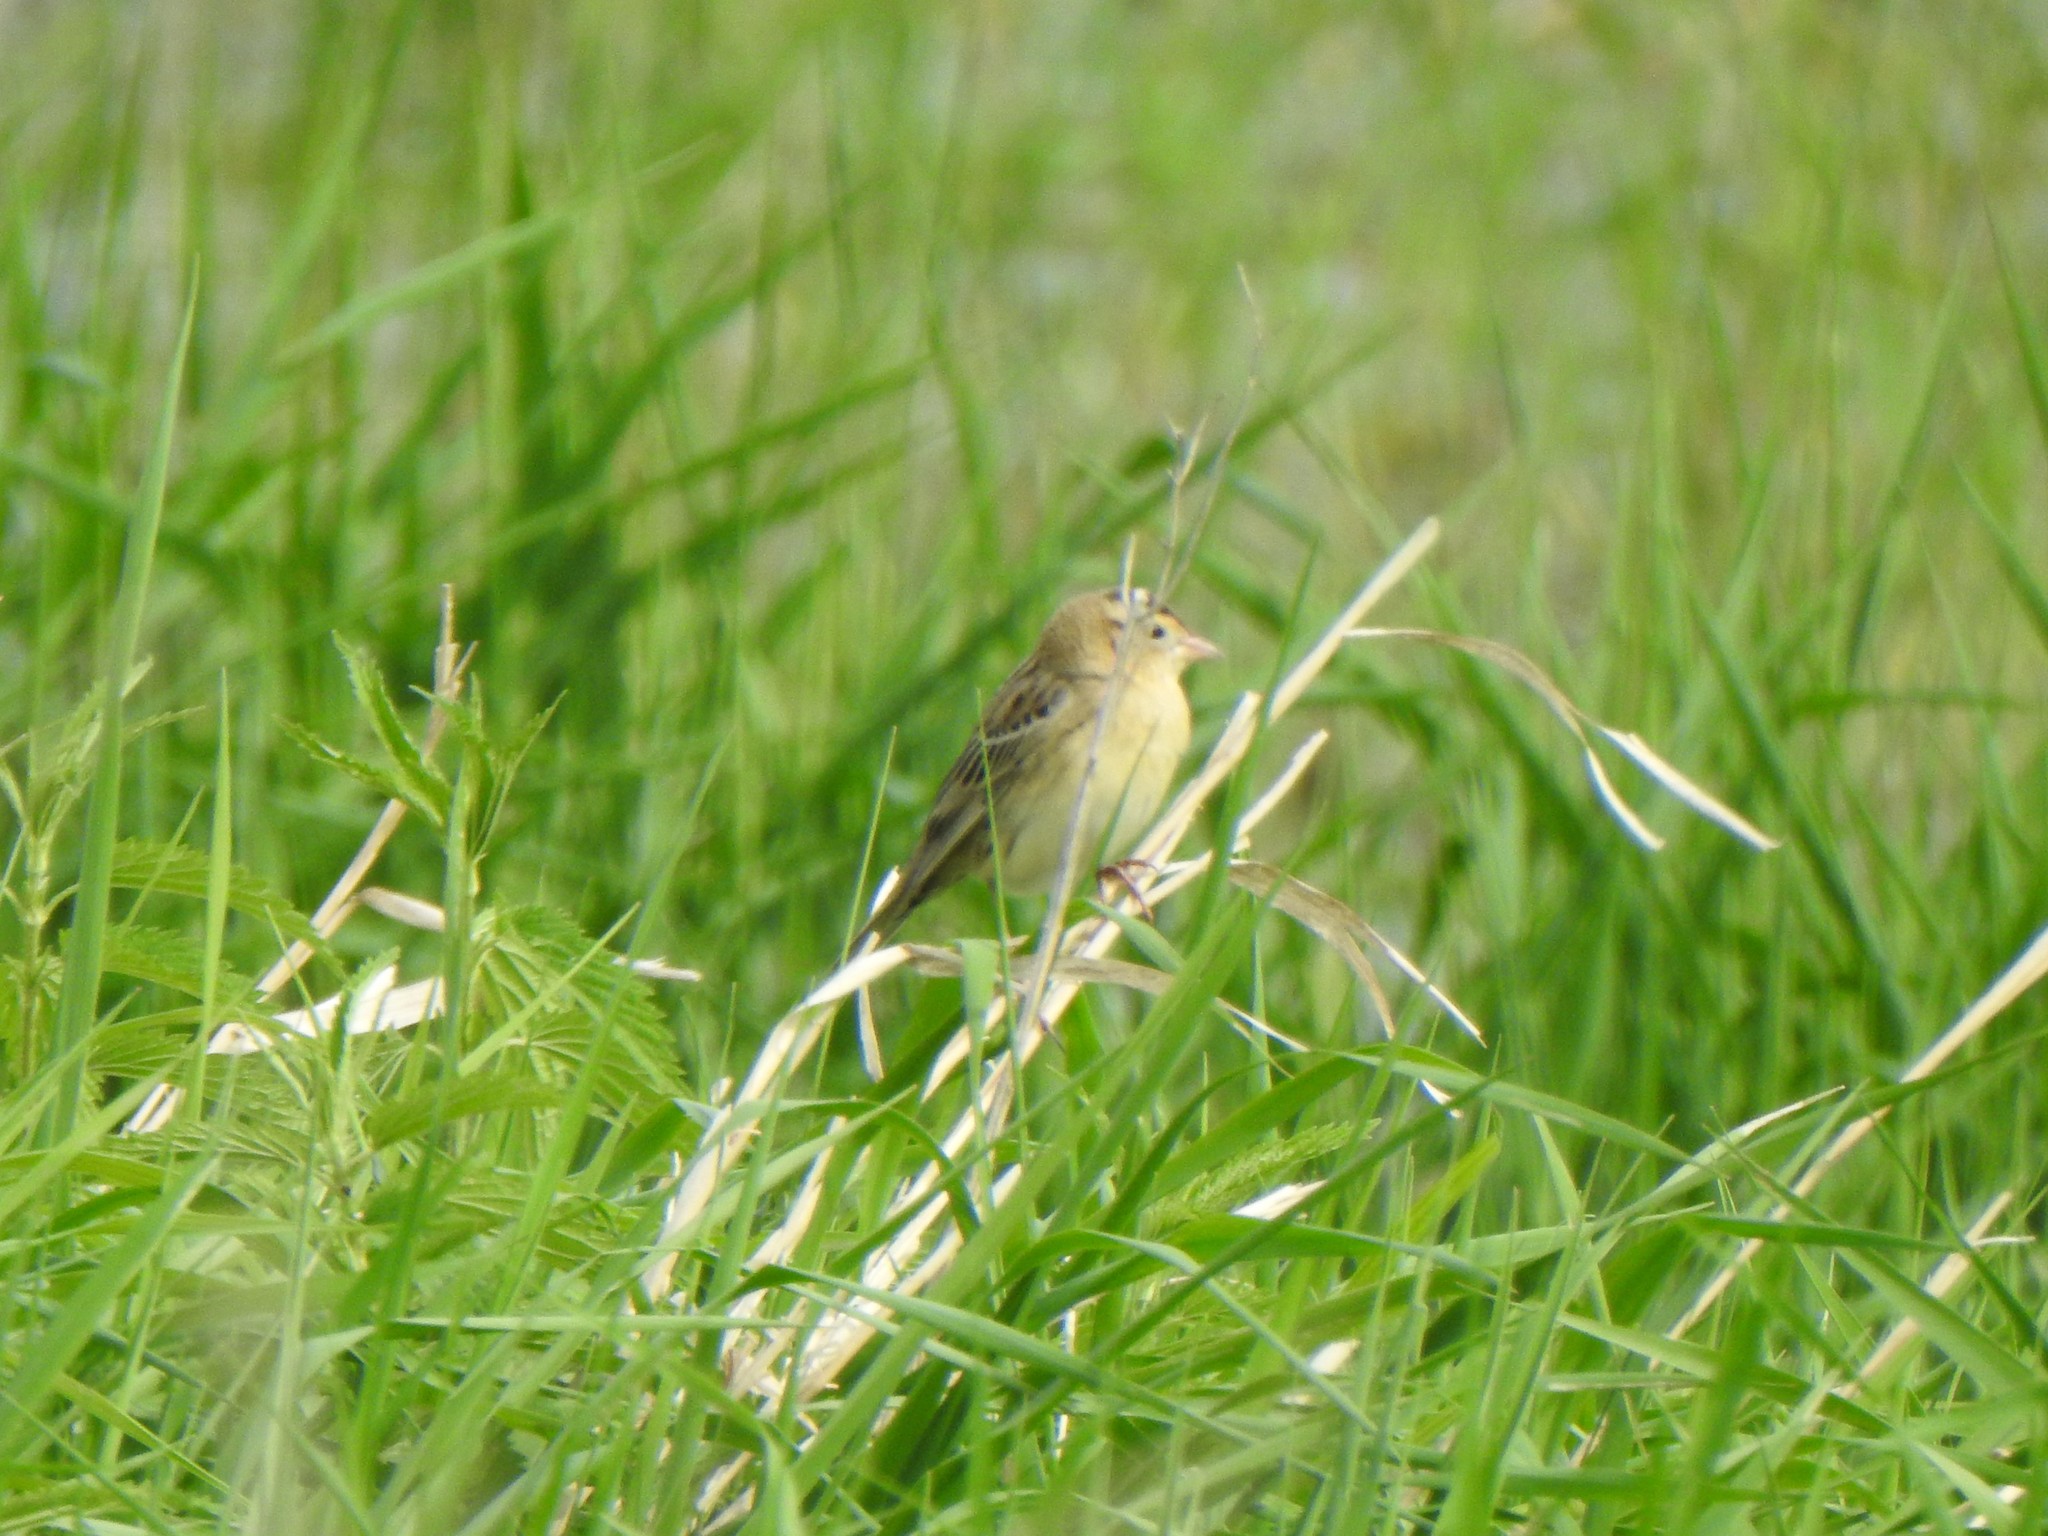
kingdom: Animalia
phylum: Chordata
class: Aves
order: Passeriformes
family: Icteridae
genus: Dolichonyx
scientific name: Dolichonyx oryzivorus
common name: Bobolink
